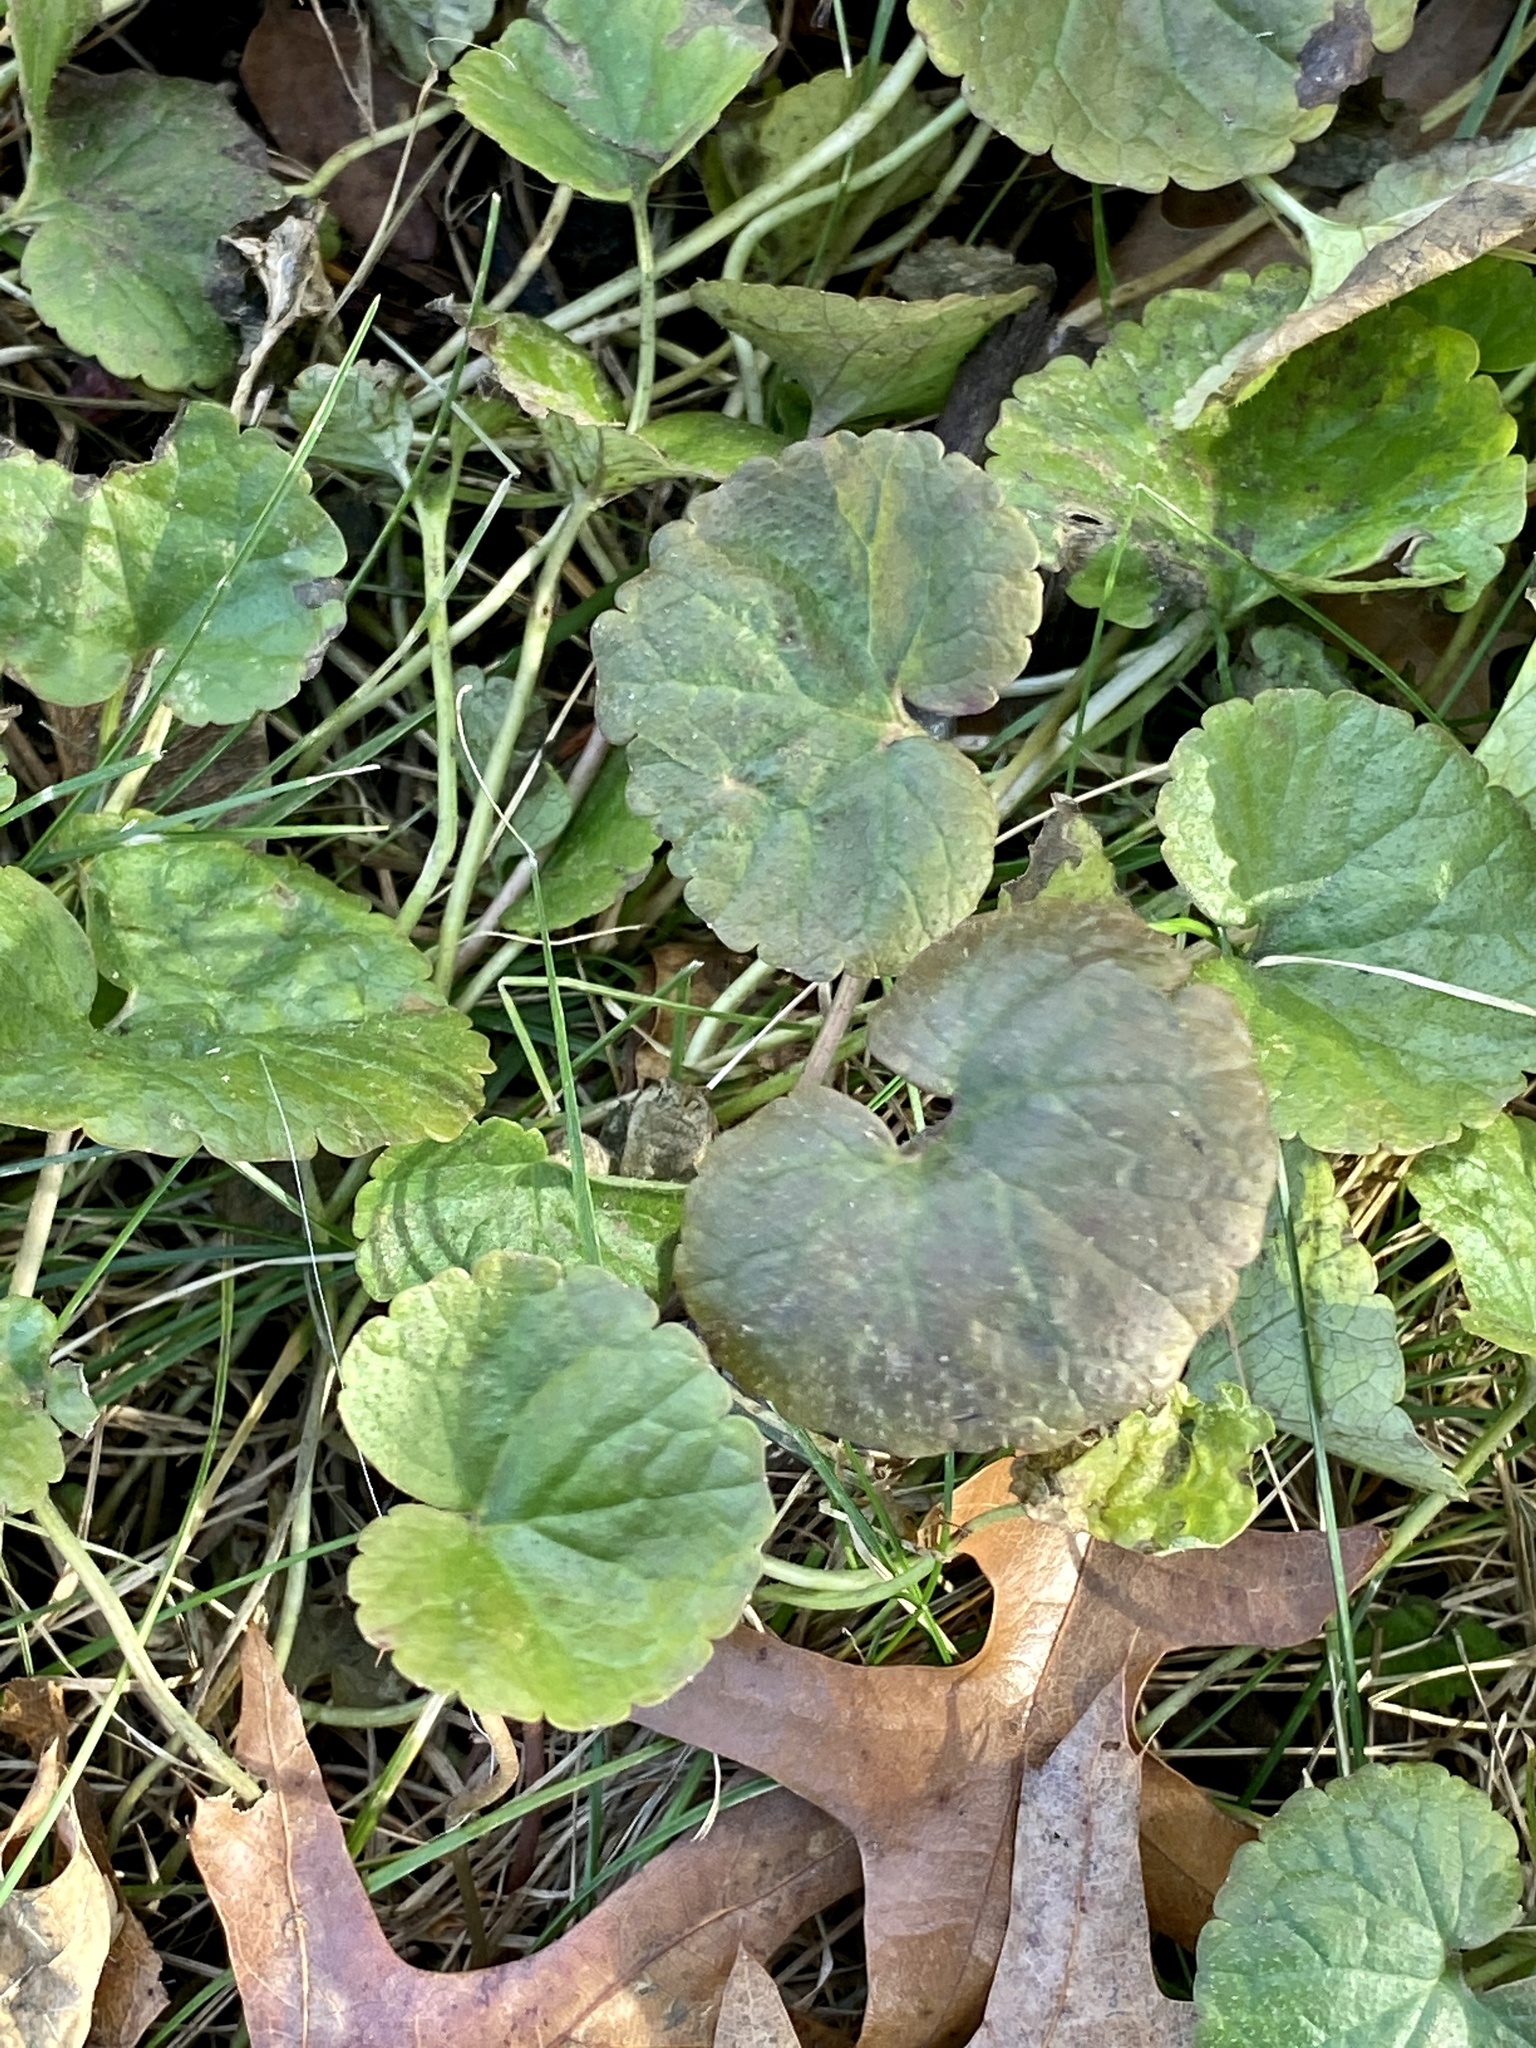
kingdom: Plantae
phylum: Tracheophyta
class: Magnoliopsida
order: Lamiales
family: Lamiaceae
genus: Glechoma
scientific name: Glechoma hederacea
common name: Ground ivy
